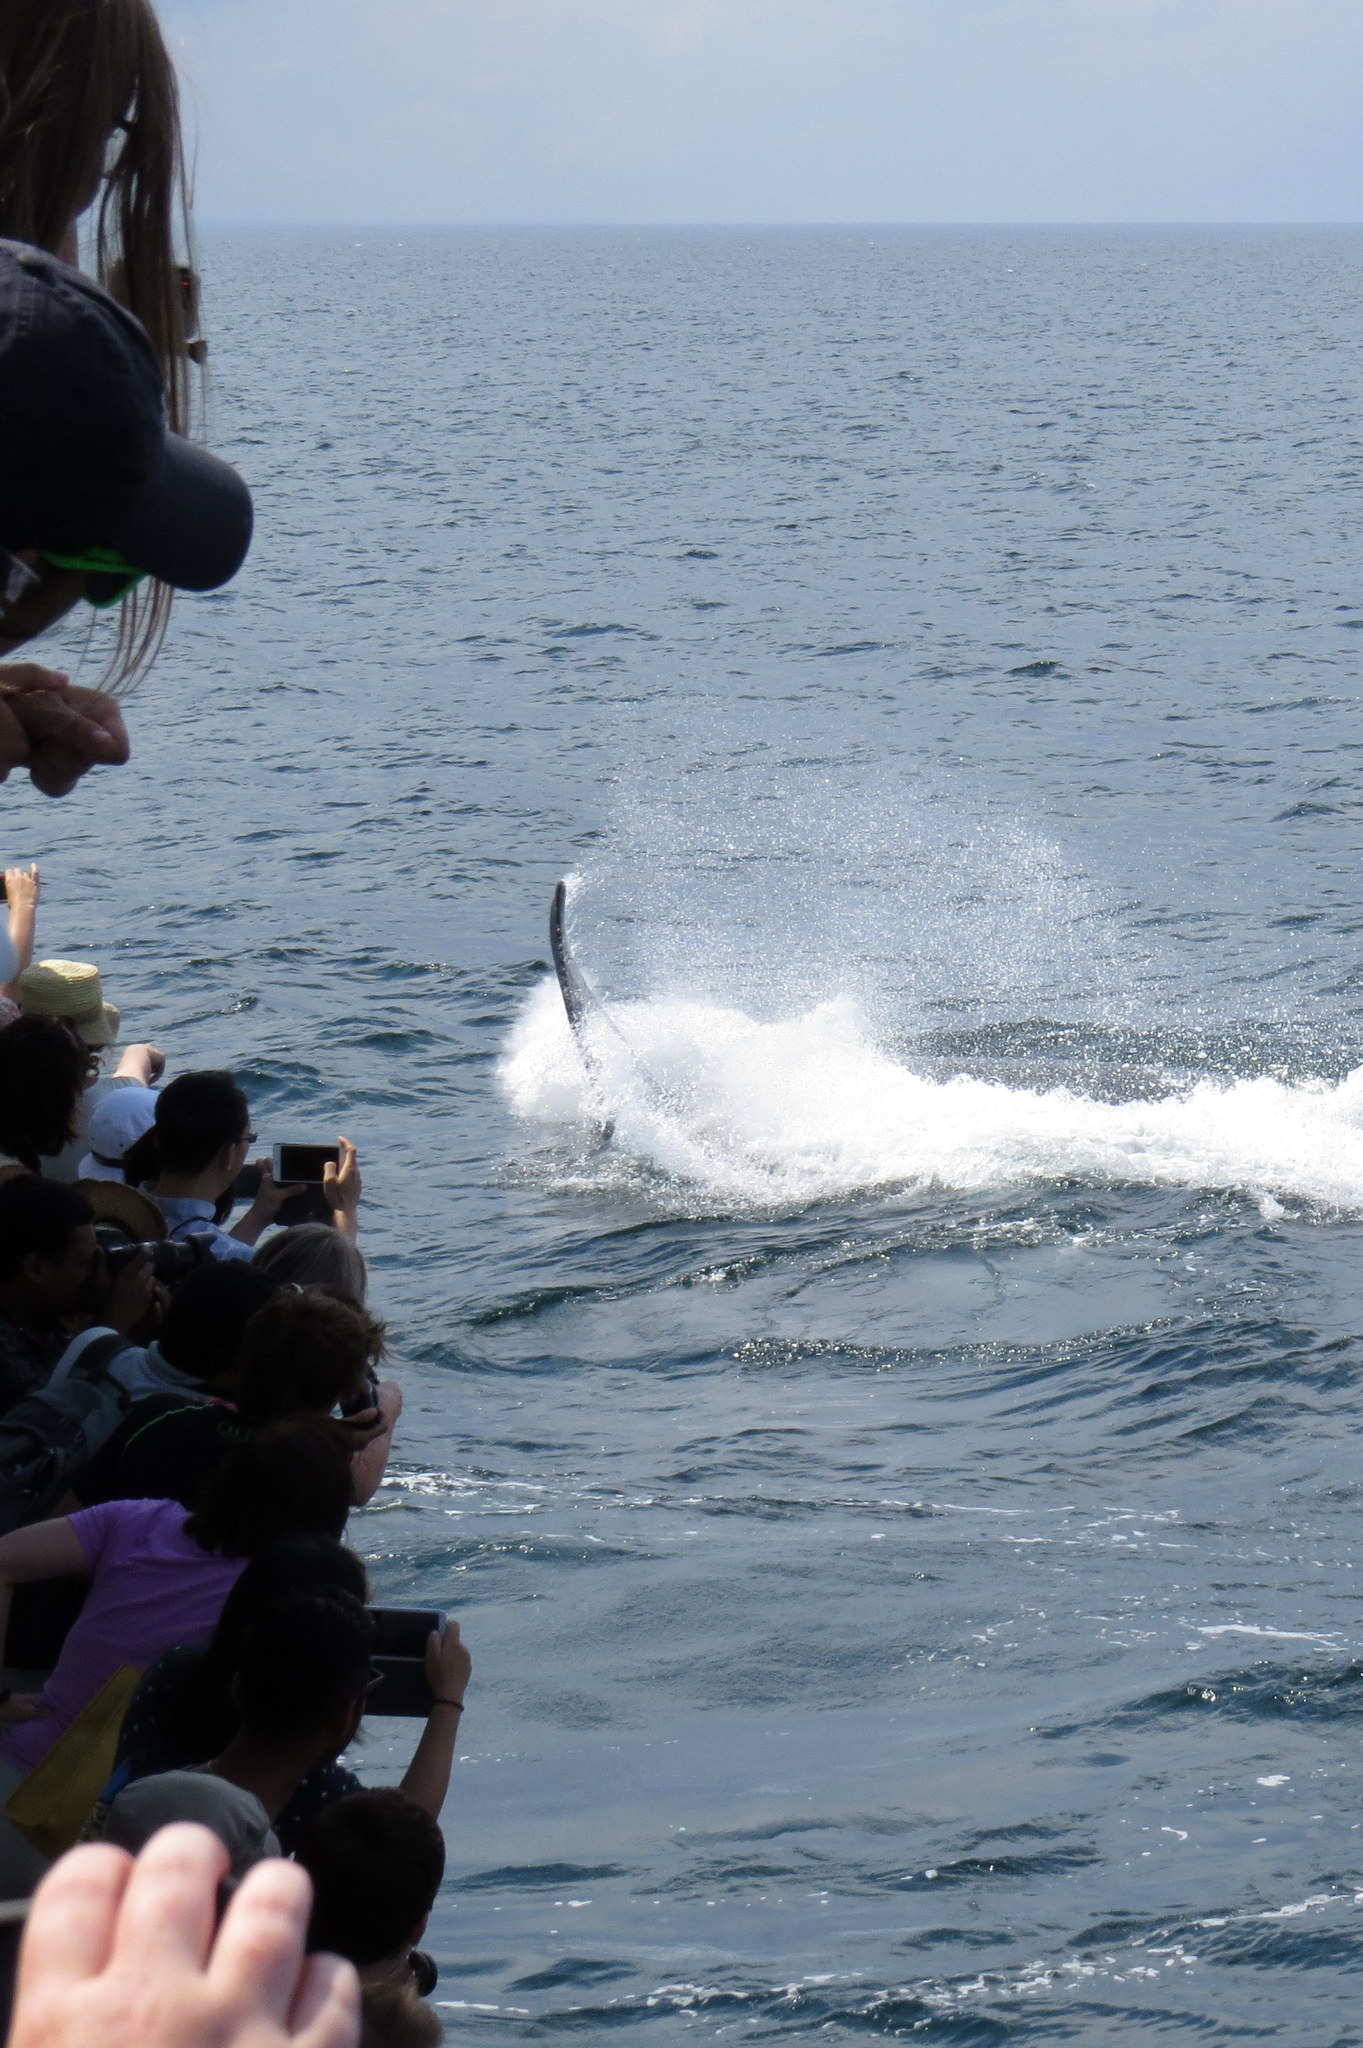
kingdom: Animalia
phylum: Chordata
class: Mammalia
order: Cetacea
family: Balaenopteridae
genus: Megaptera
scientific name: Megaptera novaeangliae
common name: Humpback whale
